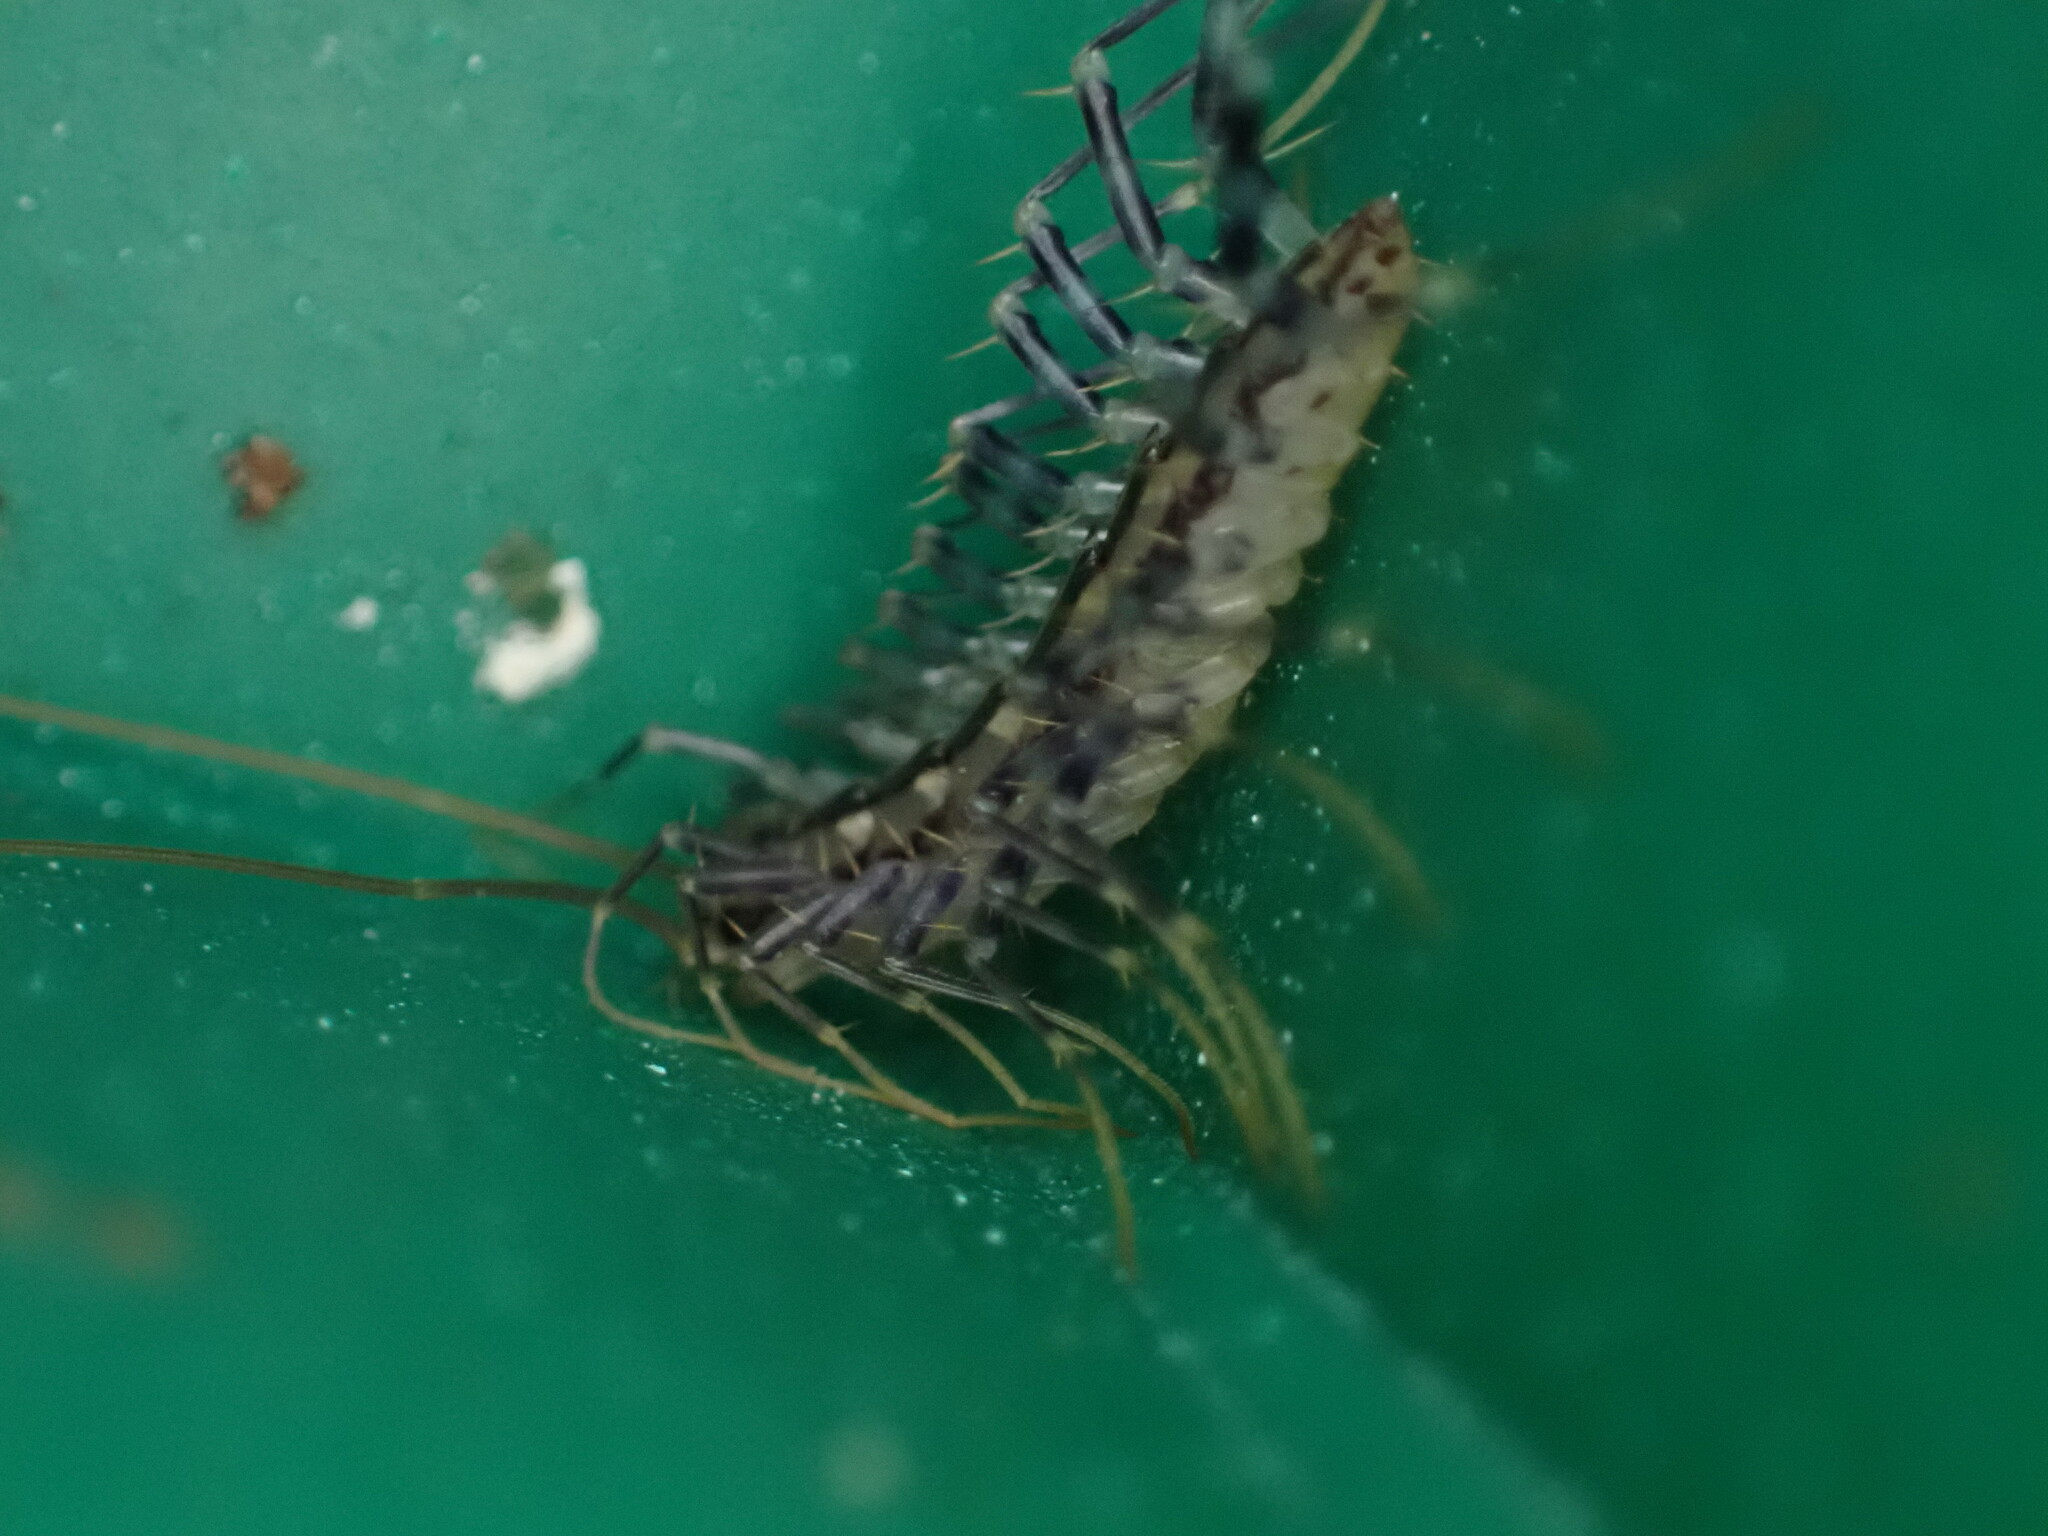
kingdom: Animalia
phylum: Arthropoda
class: Chilopoda
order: Scutigeromorpha
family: Scutigeridae
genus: Scutigera
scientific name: Scutigera coleoptrata
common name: House centipede
